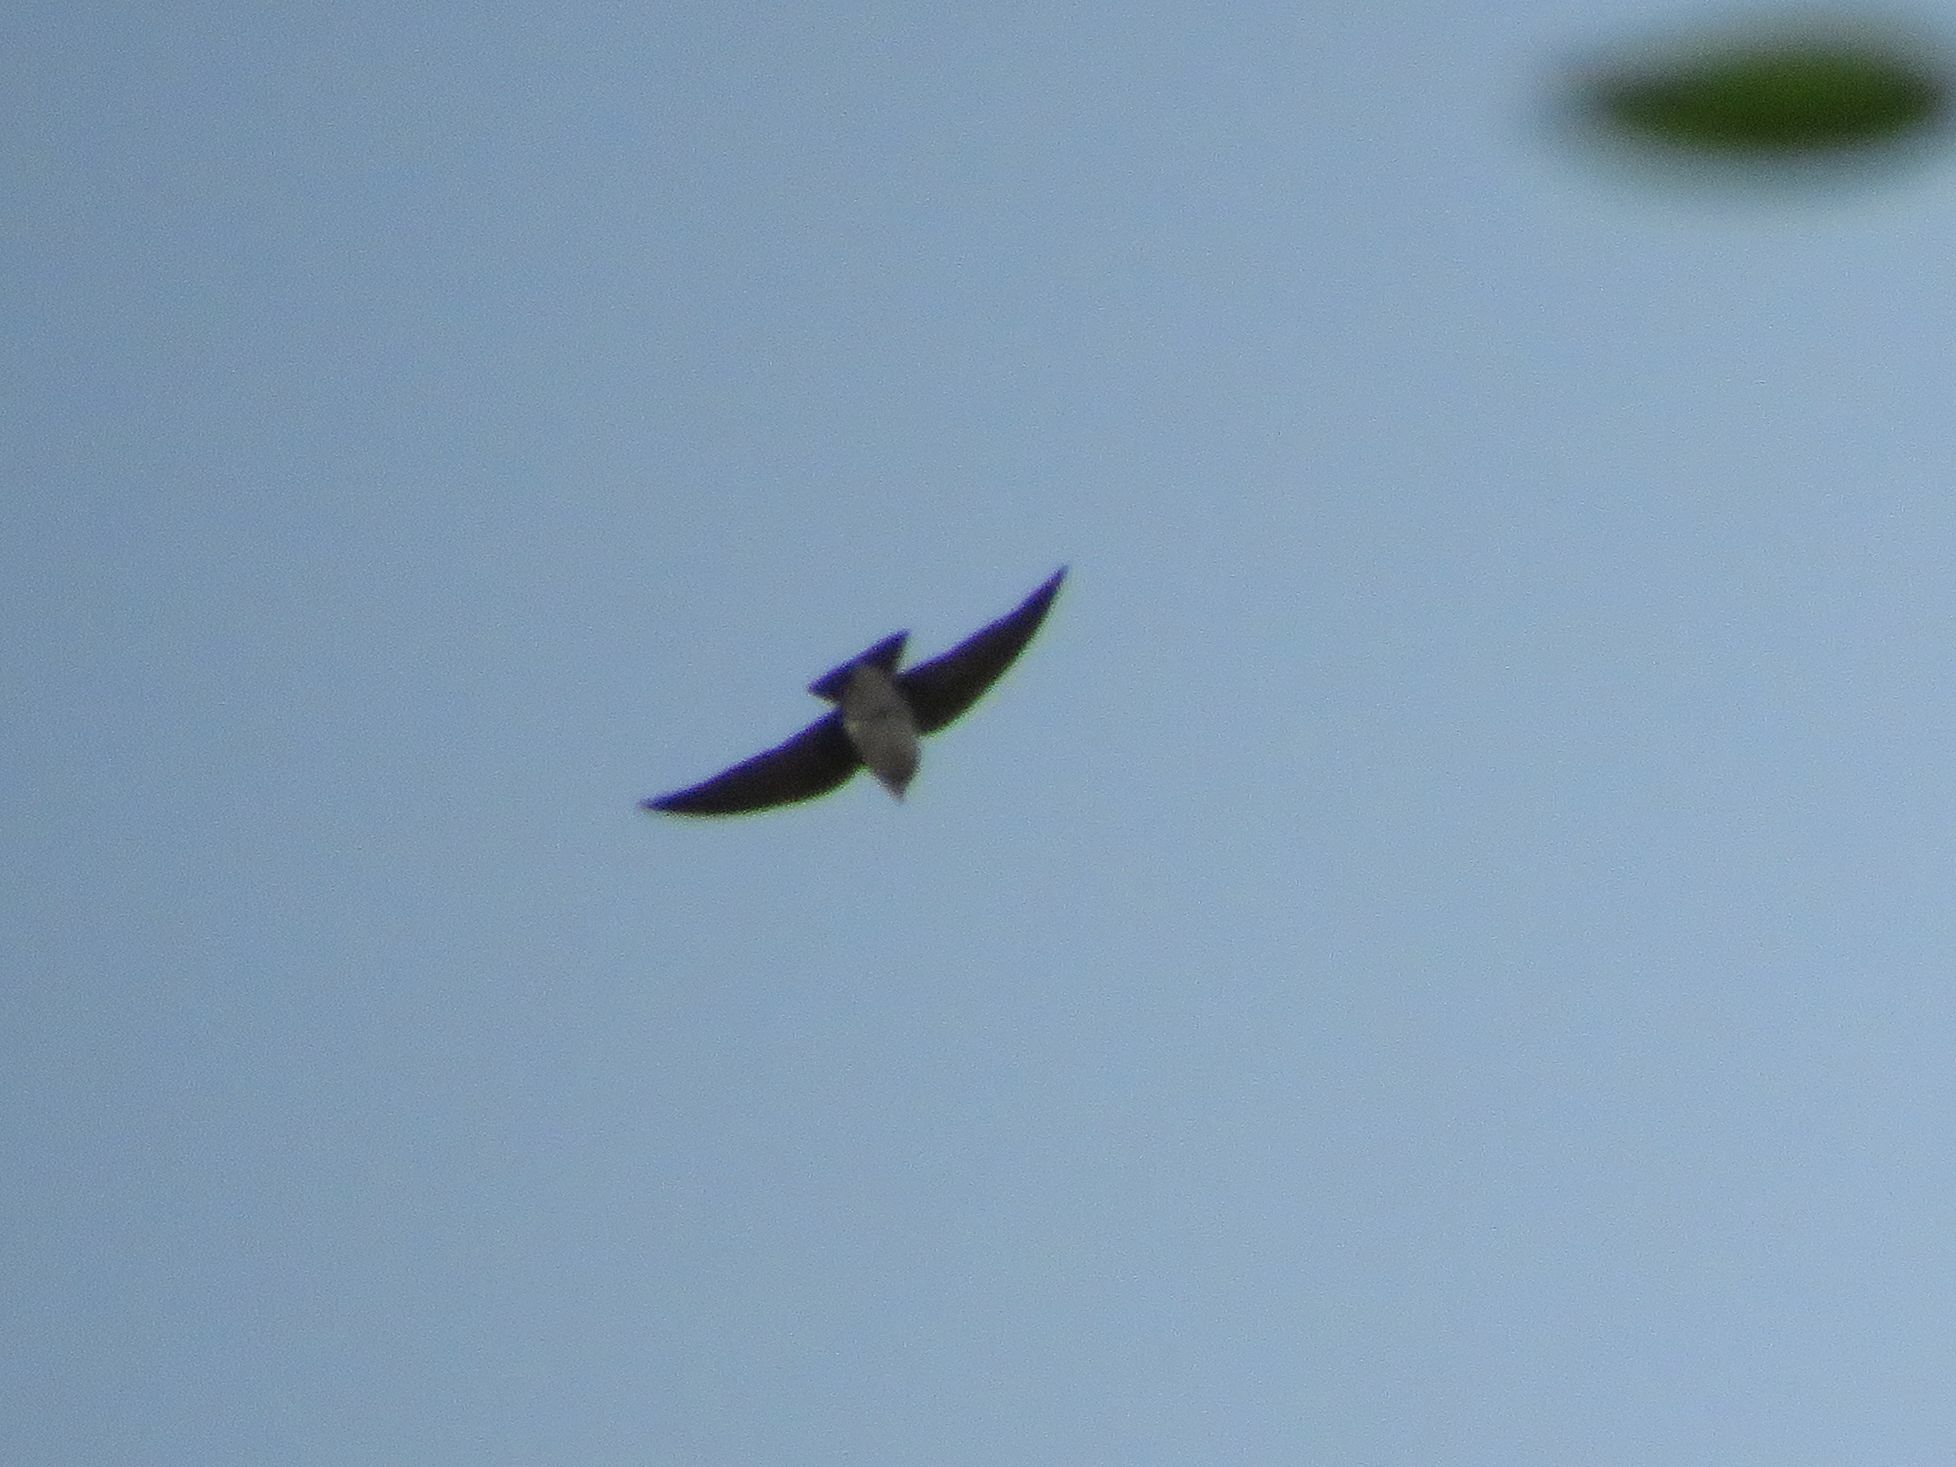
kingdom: Animalia
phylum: Chordata
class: Aves
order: Passeriformes
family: Hirundinidae
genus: Progne
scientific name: Progne chalybea
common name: Grey-breasted martin
